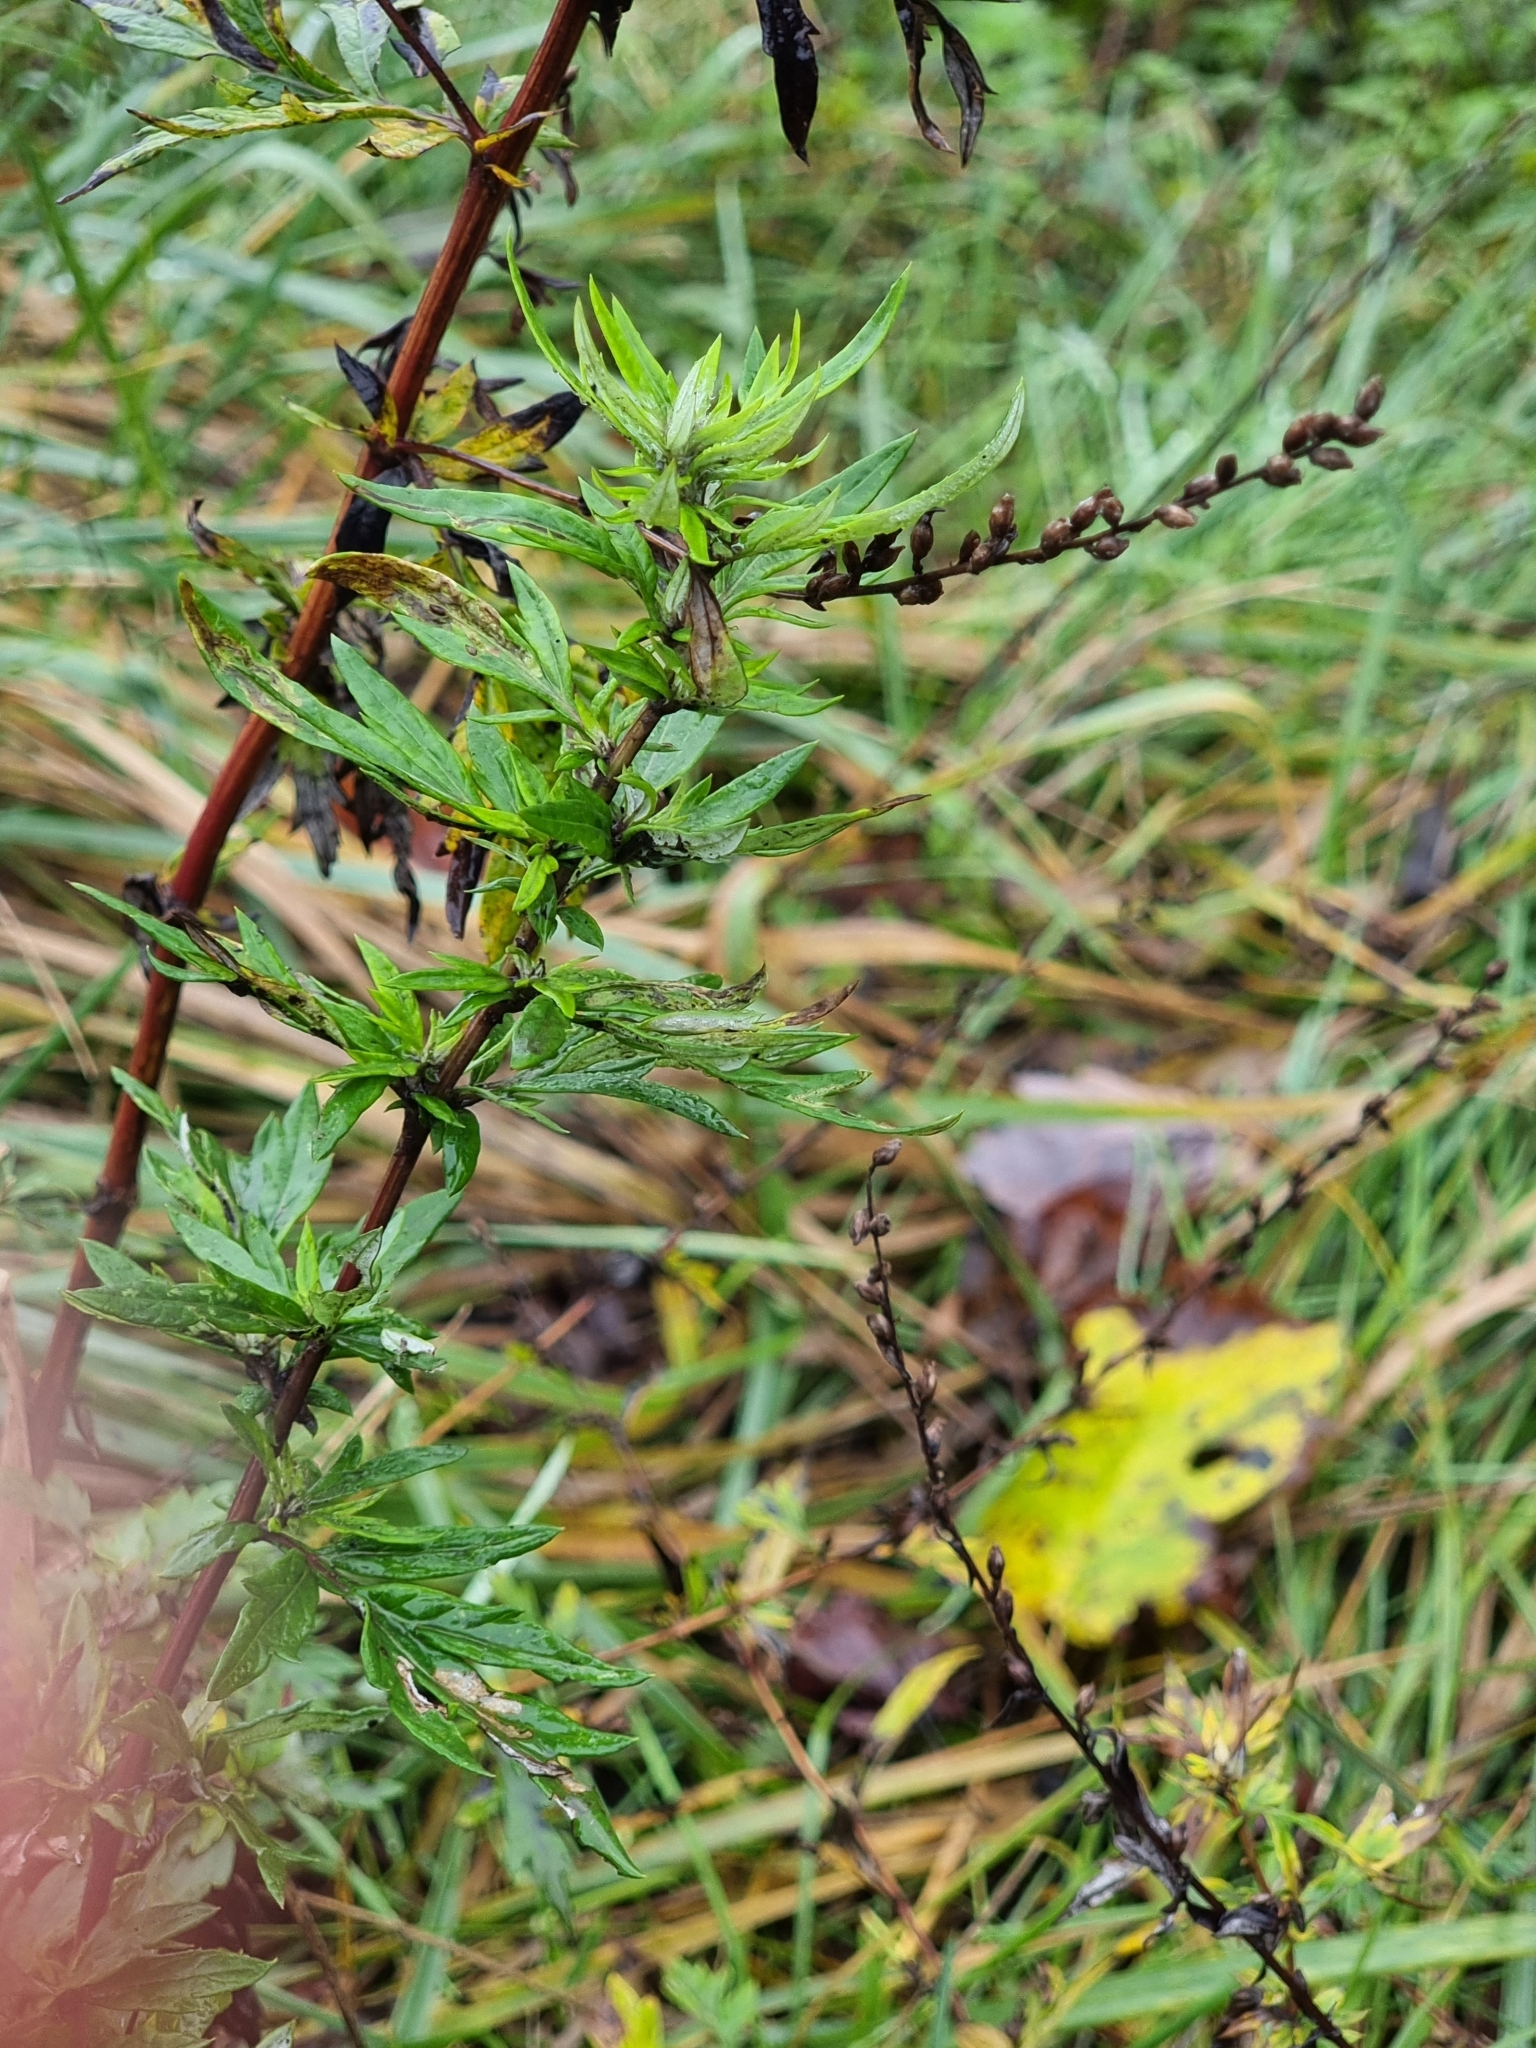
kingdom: Plantae
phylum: Tracheophyta
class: Magnoliopsida
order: Asterales
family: Asteraceae
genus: Artemisia
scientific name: Artemisia vulgaris
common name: Mugwort
